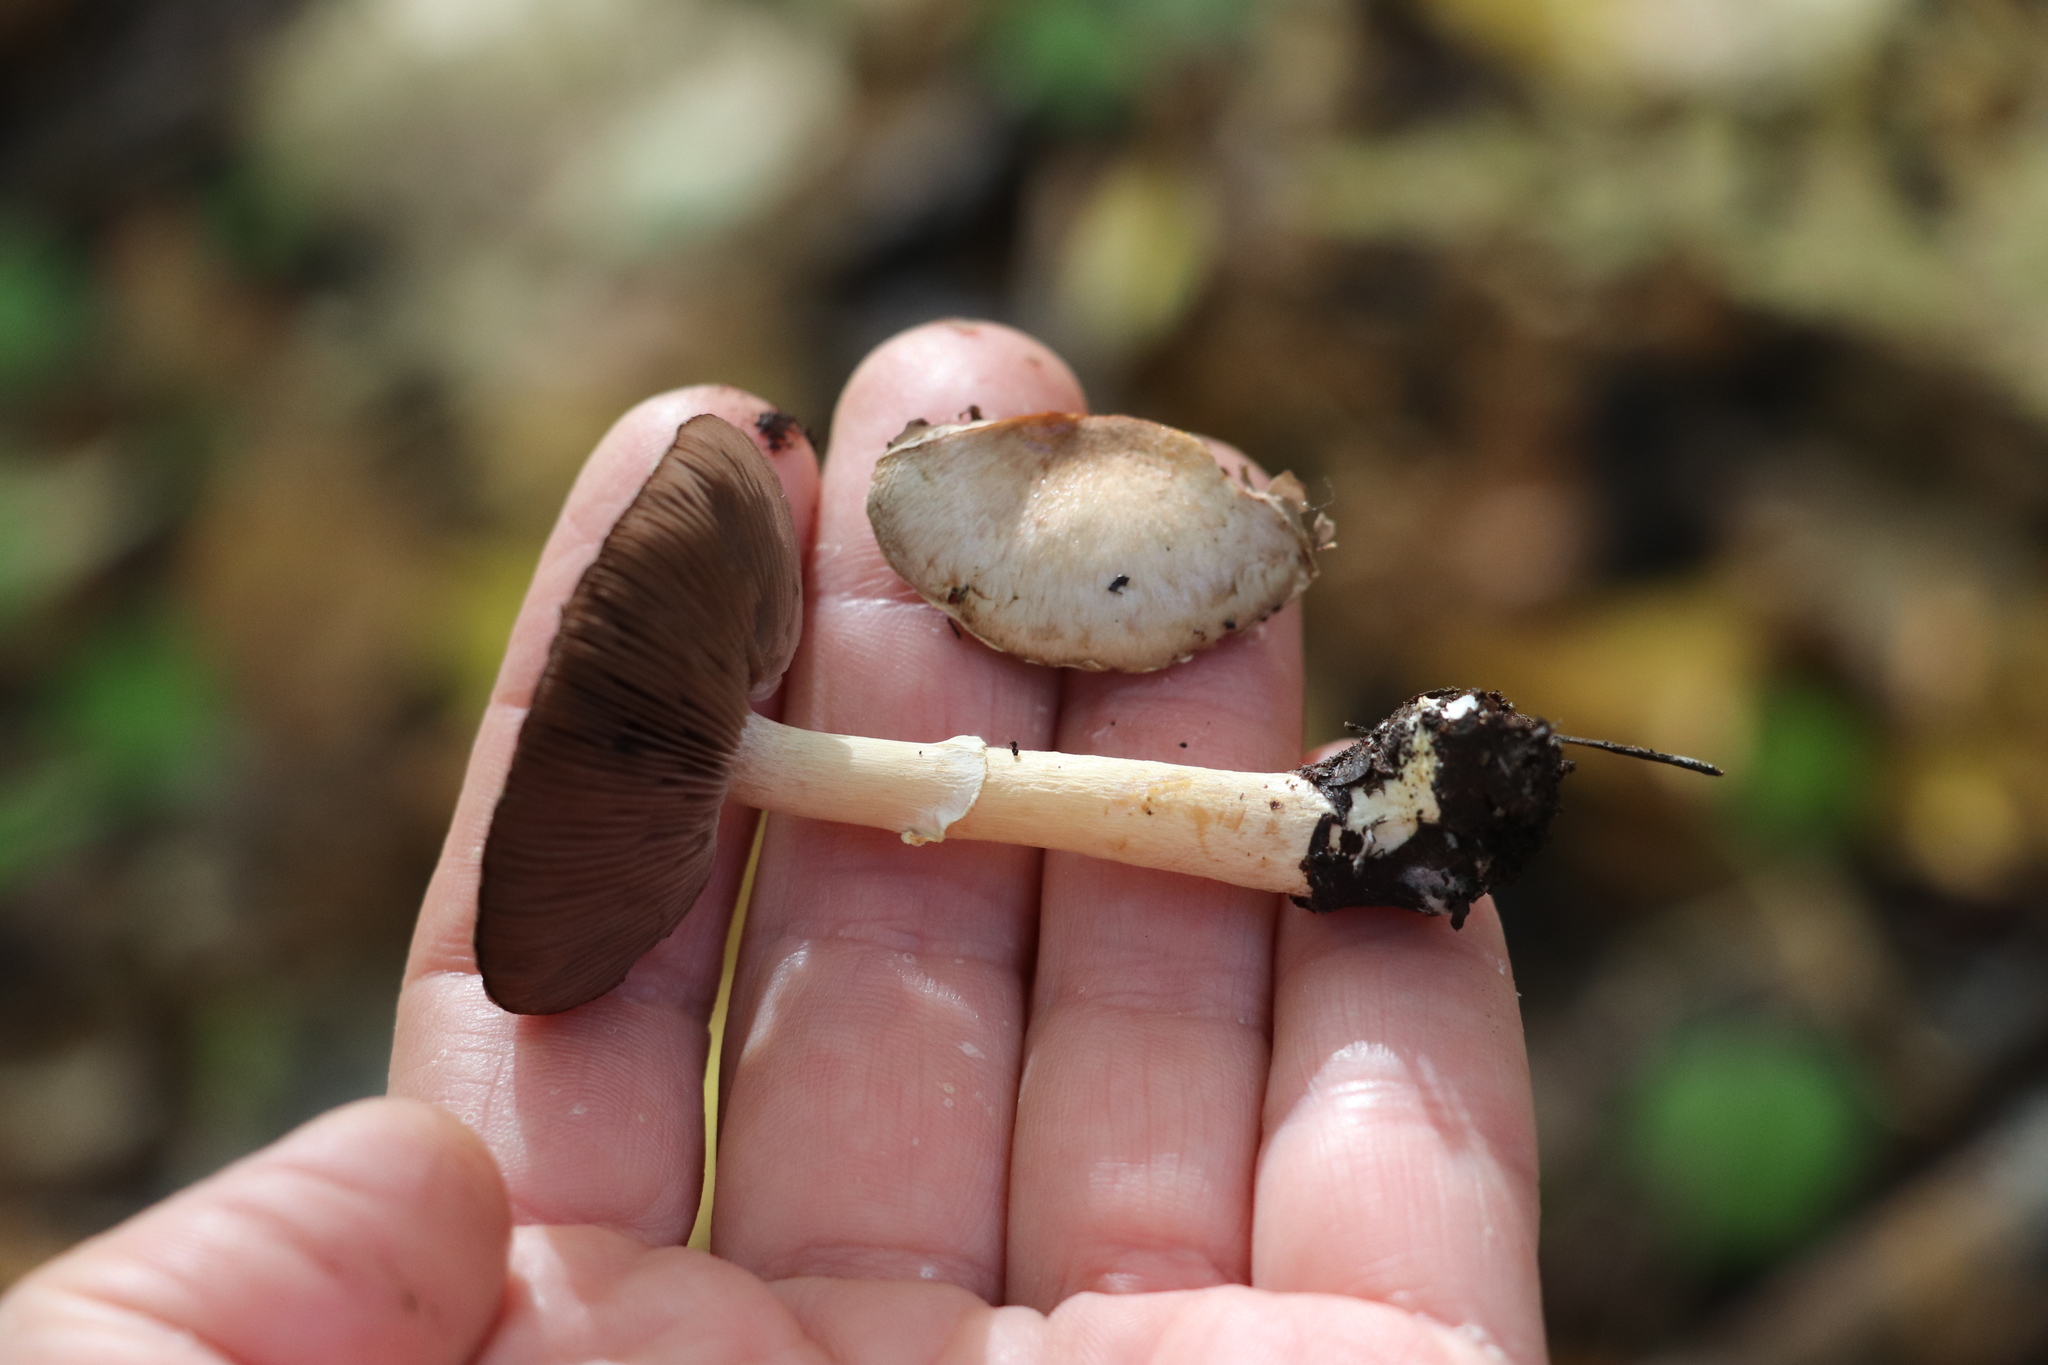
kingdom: Fungi
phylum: Basidiomycota
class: Agaricomycetes
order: Agaricales
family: Agaricaceae
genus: Agaricus
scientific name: Agaricus semotus
